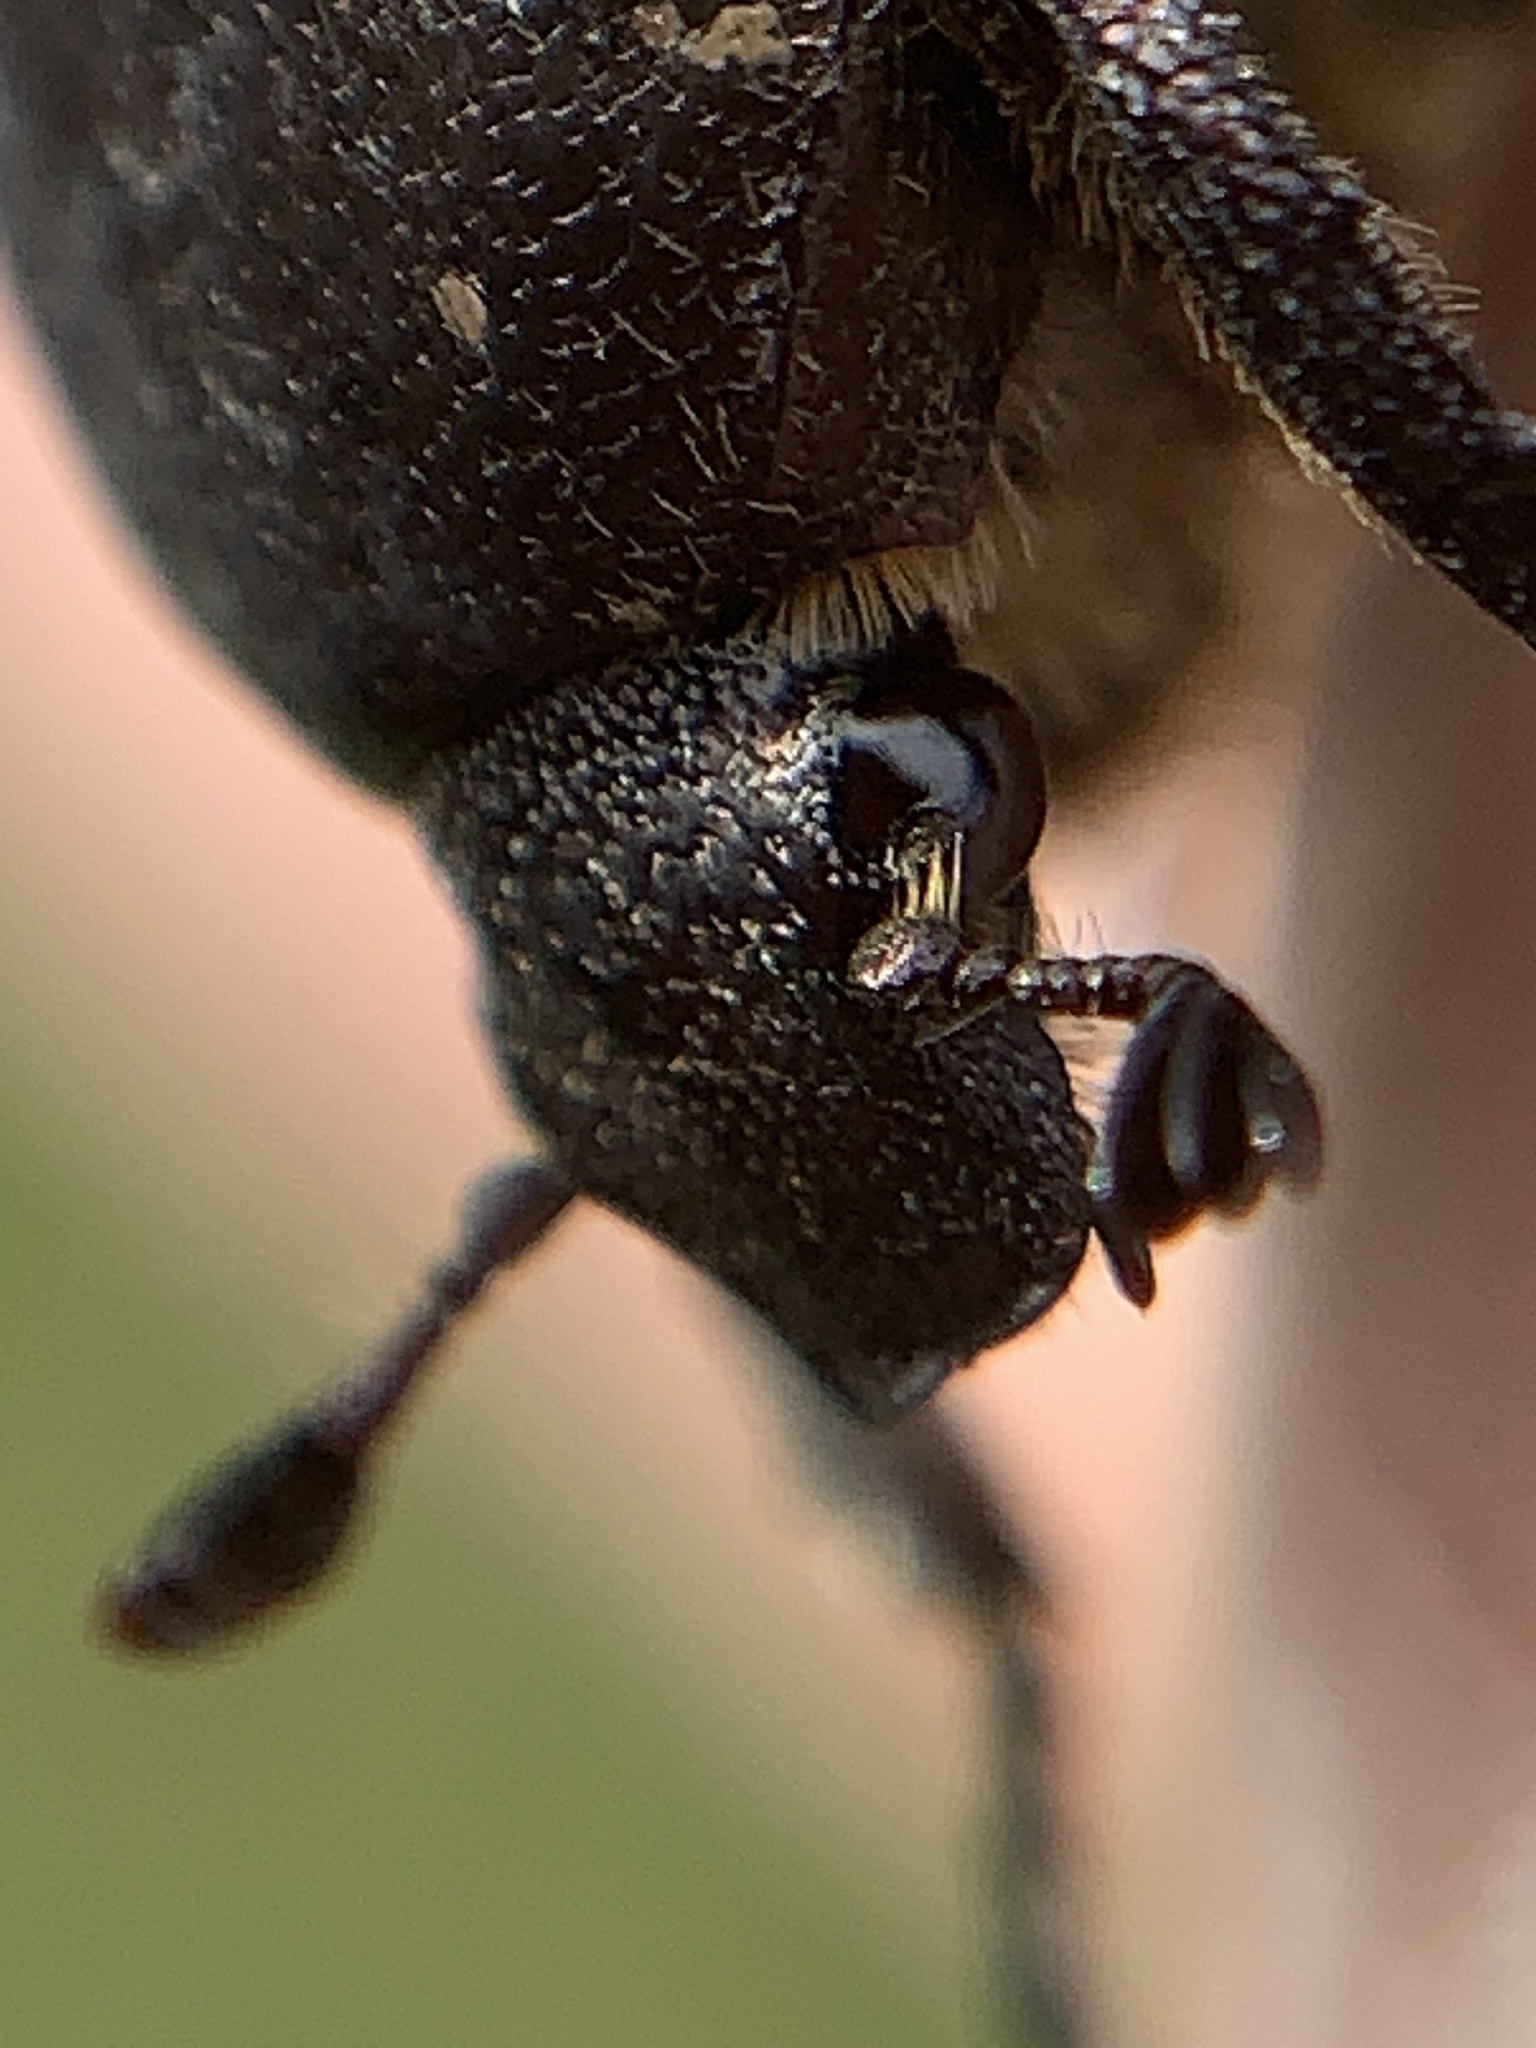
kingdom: Animalia
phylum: Arthropoda
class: Insecta
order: Coleoptera
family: Scarabaeidae
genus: Protaetia
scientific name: Protaetia morio
